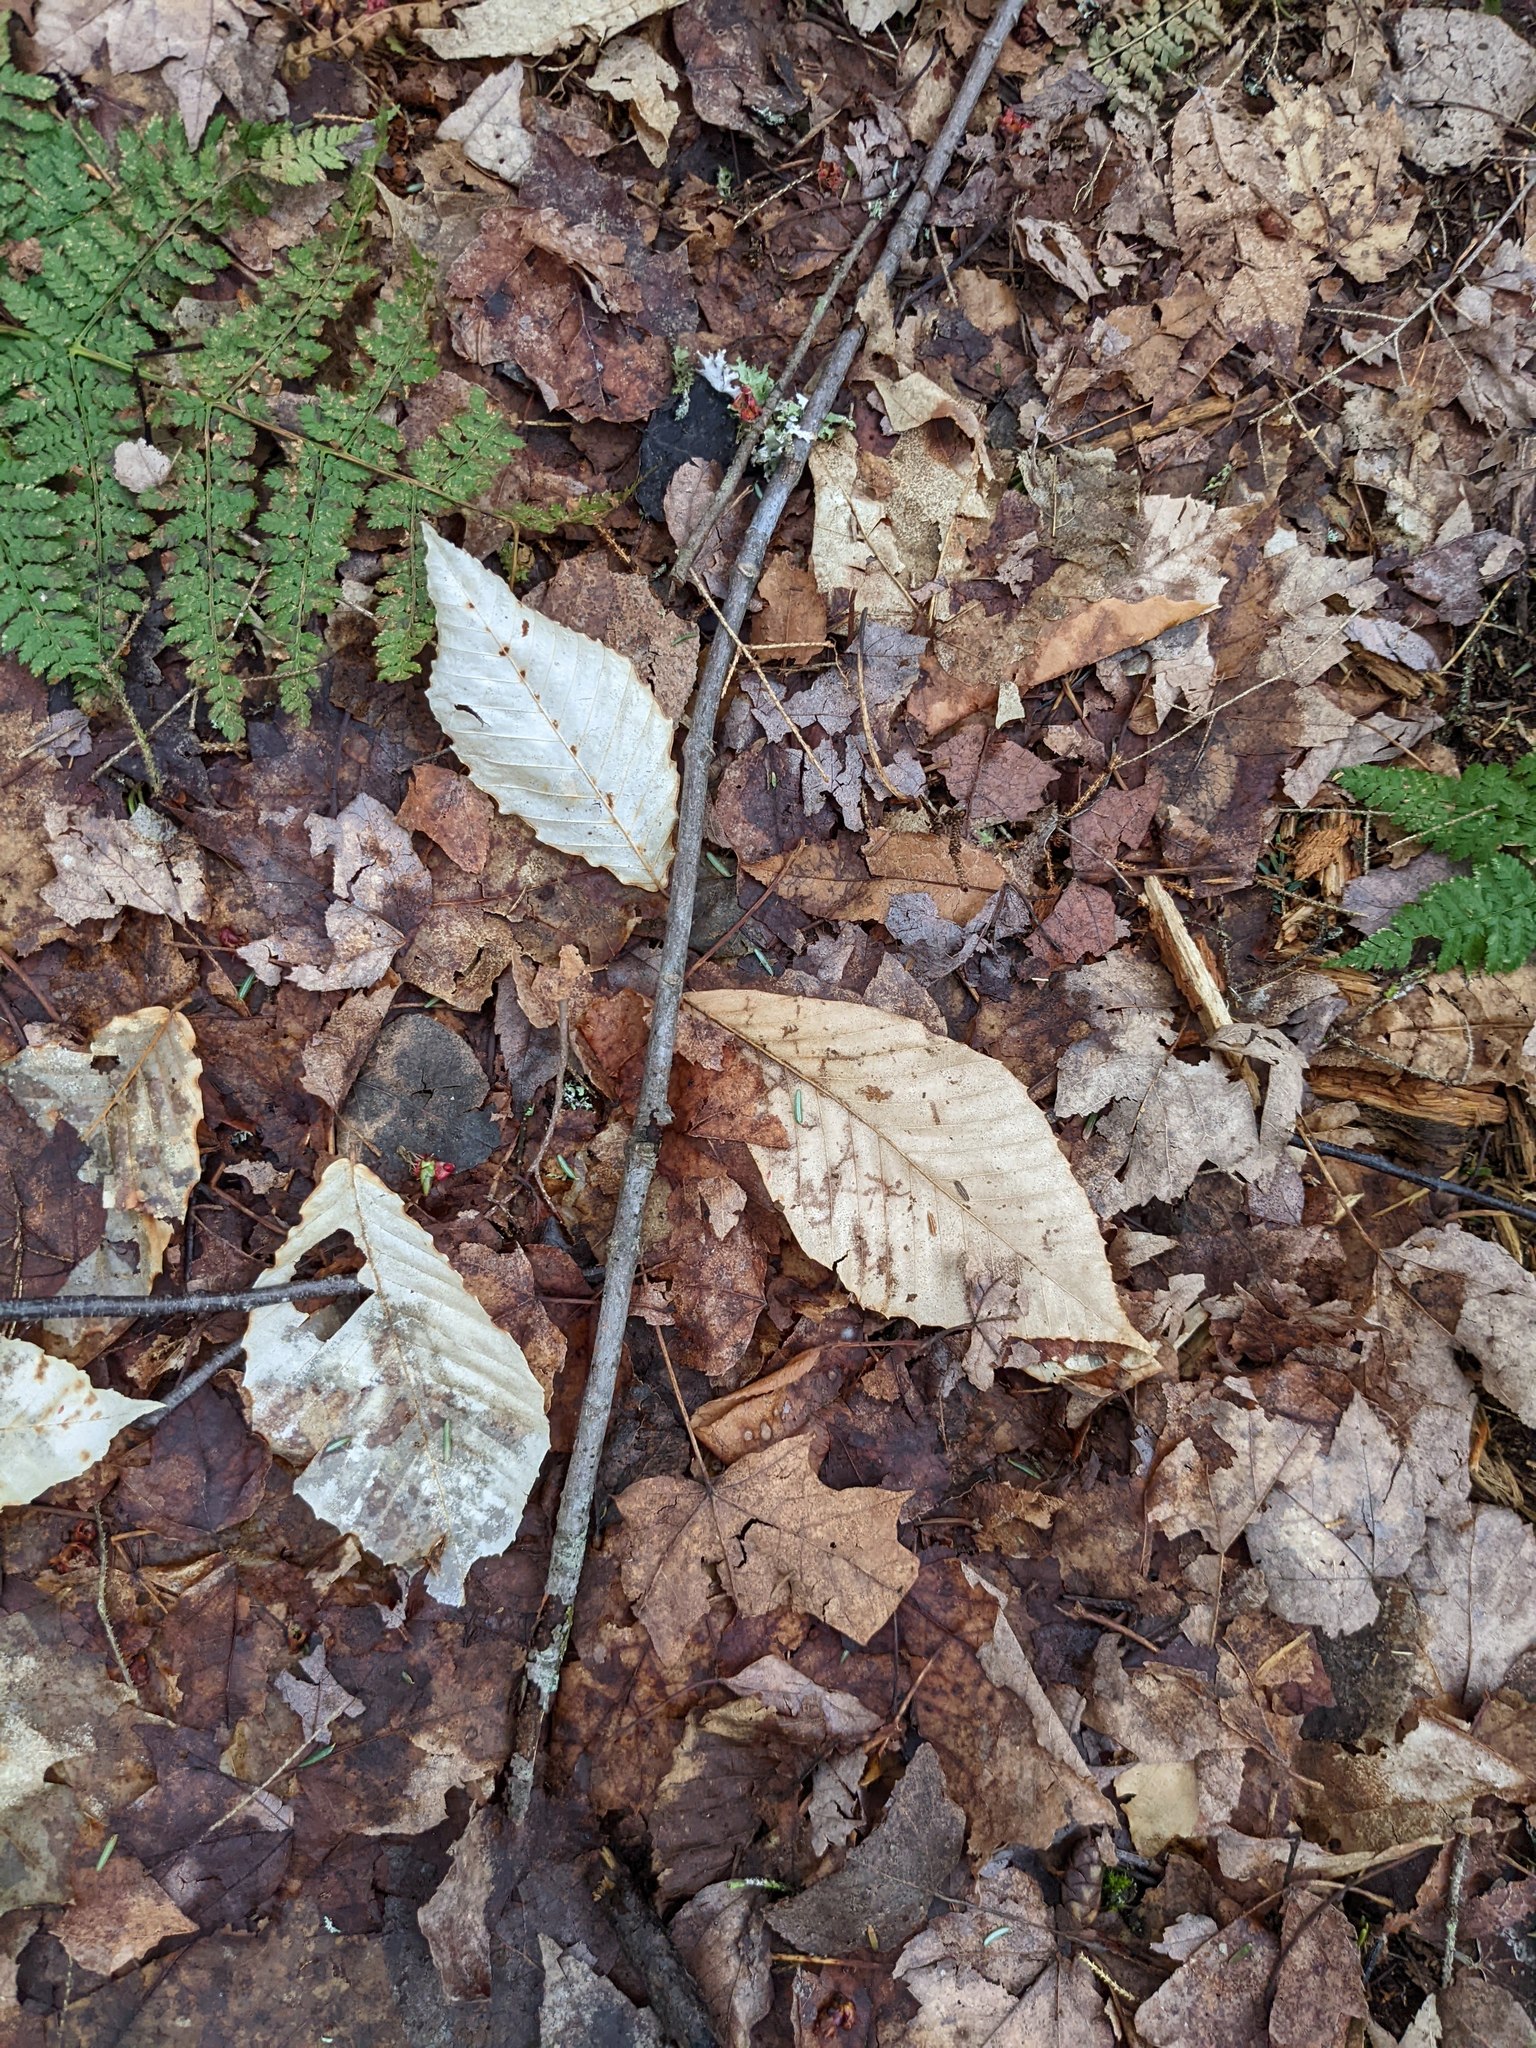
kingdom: Plantae
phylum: Tracheophyta
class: Magnoliopsida
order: Fagales
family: Fagaceae
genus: Fagus
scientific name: Fagus grandifolia
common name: American beech
